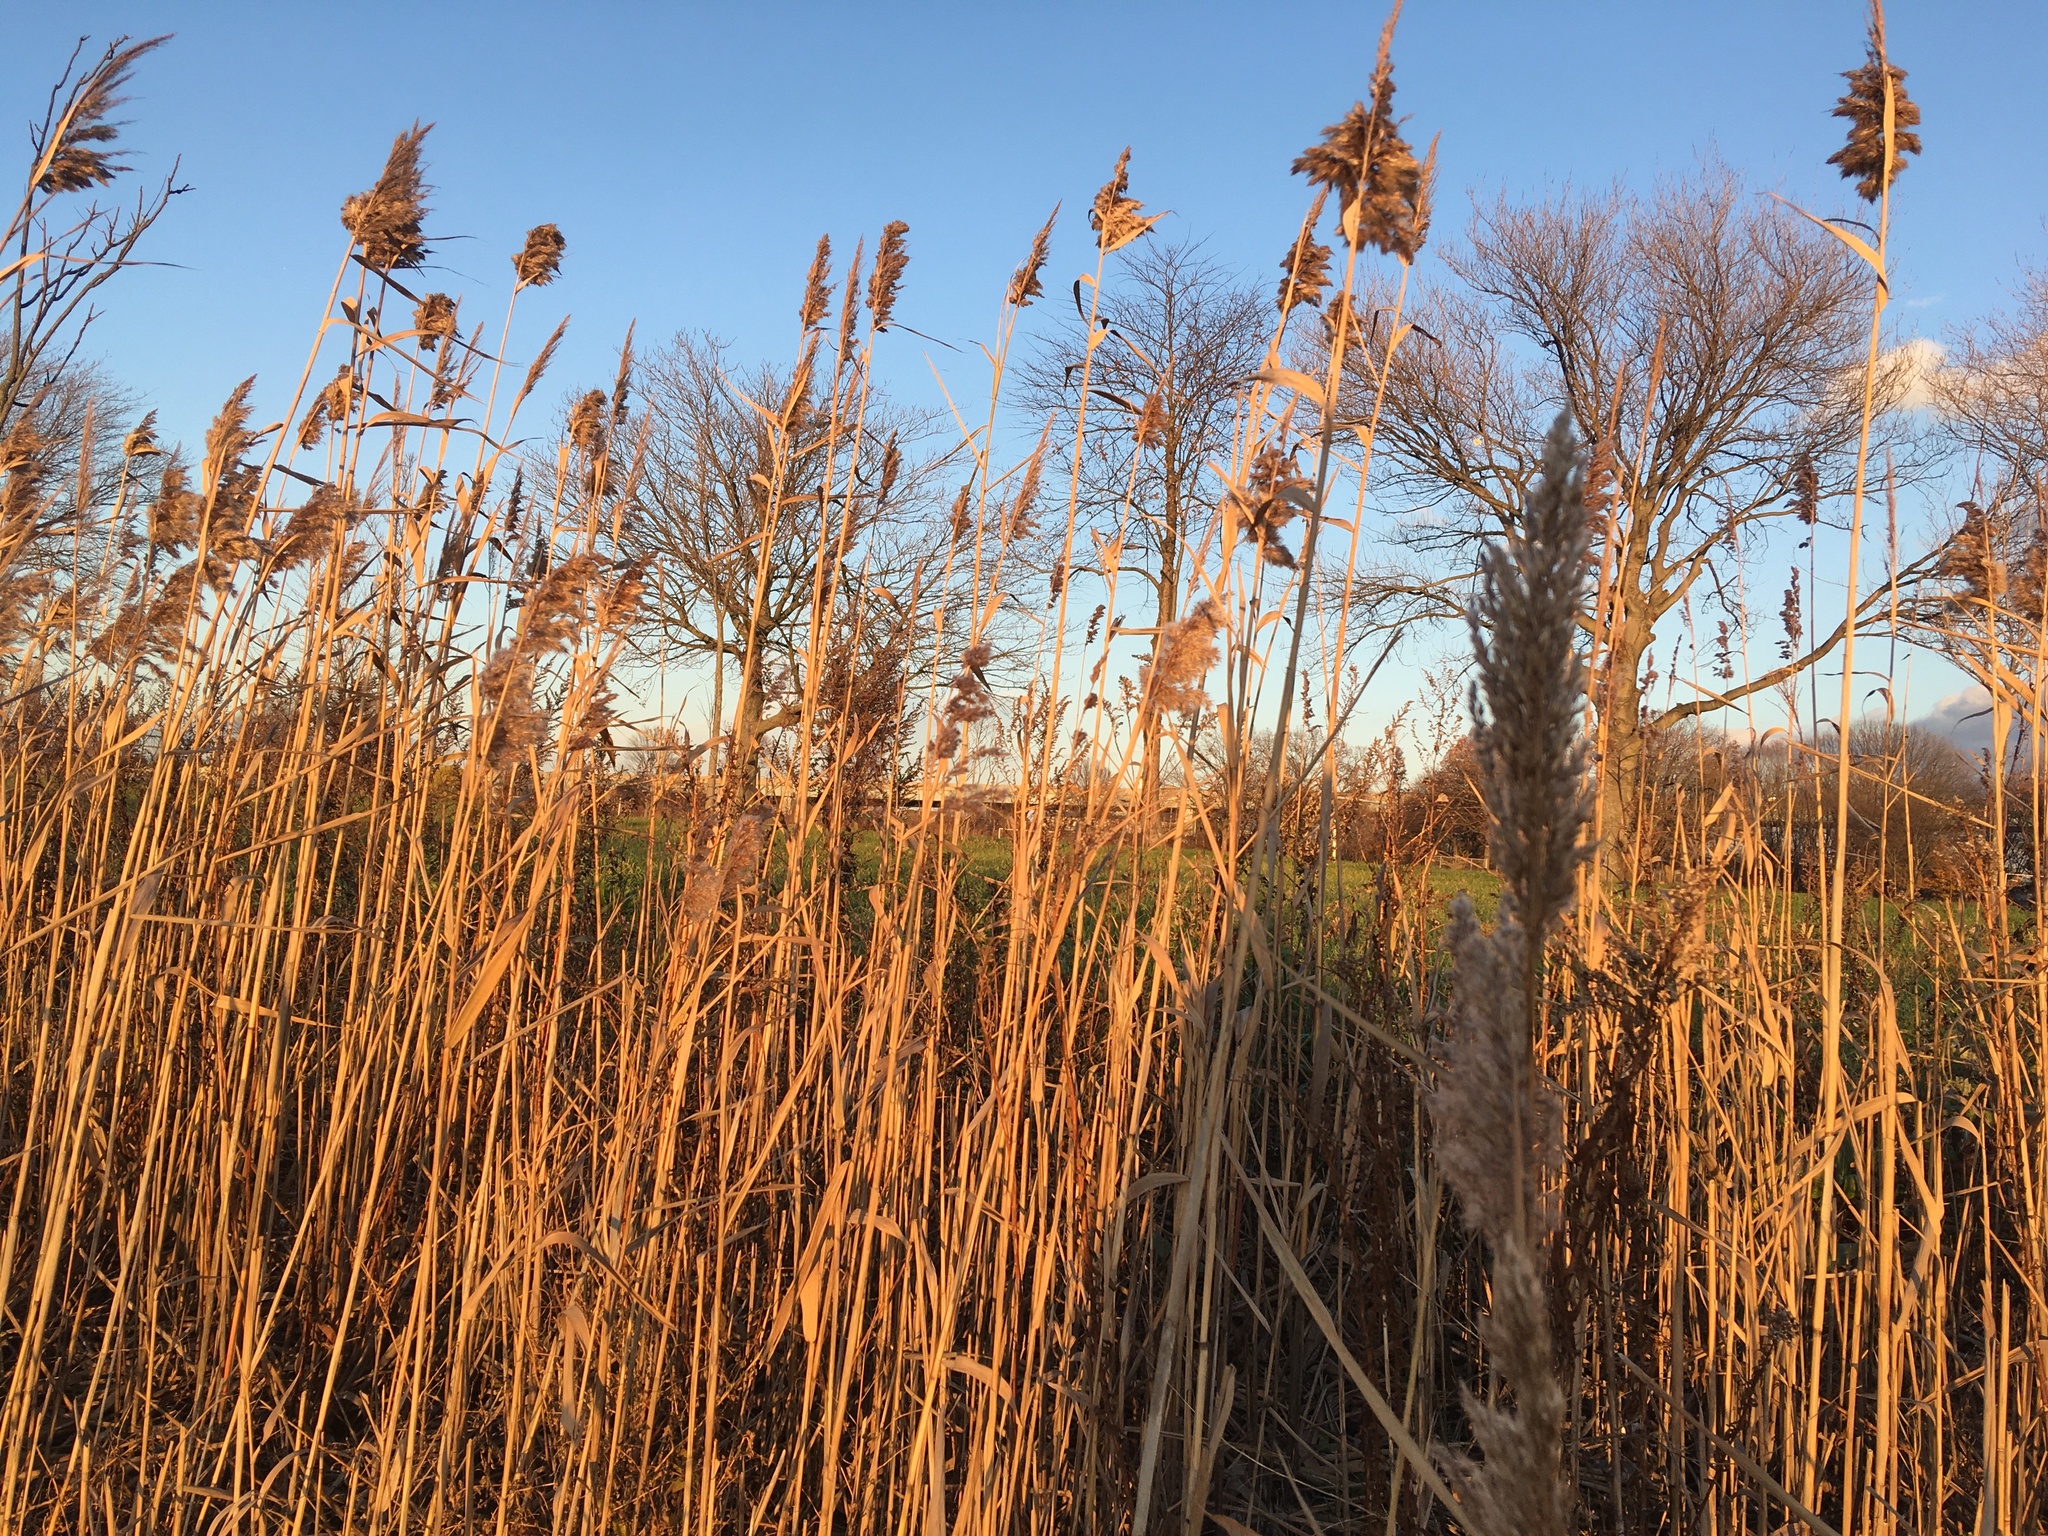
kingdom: Plantae
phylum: Tracheophyta
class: Liliopsida
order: Poales
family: Poaceae
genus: Phragmites
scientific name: Phragmites australis
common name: Common reed
